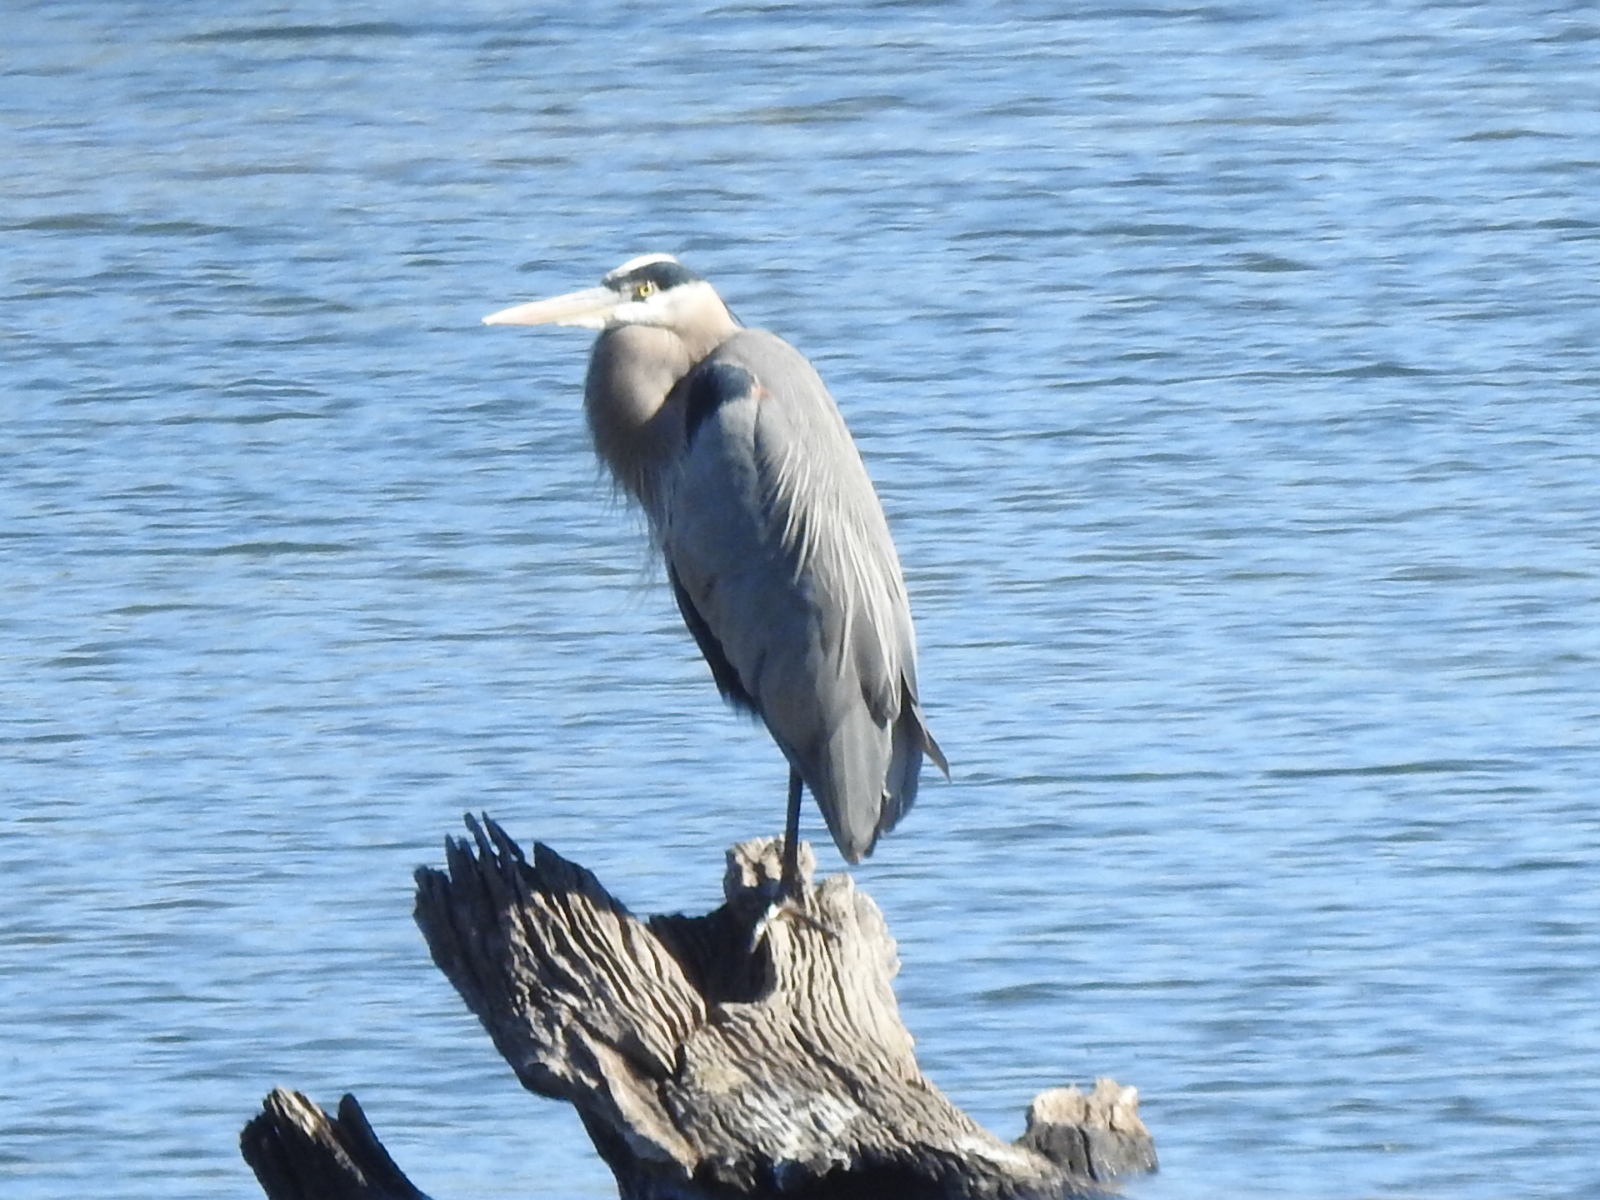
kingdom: Animalia
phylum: Chordata
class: Aves
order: Pelecaniformes
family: Ardeidae
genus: Ardea
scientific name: Ardea herodias
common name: Great blue heron
